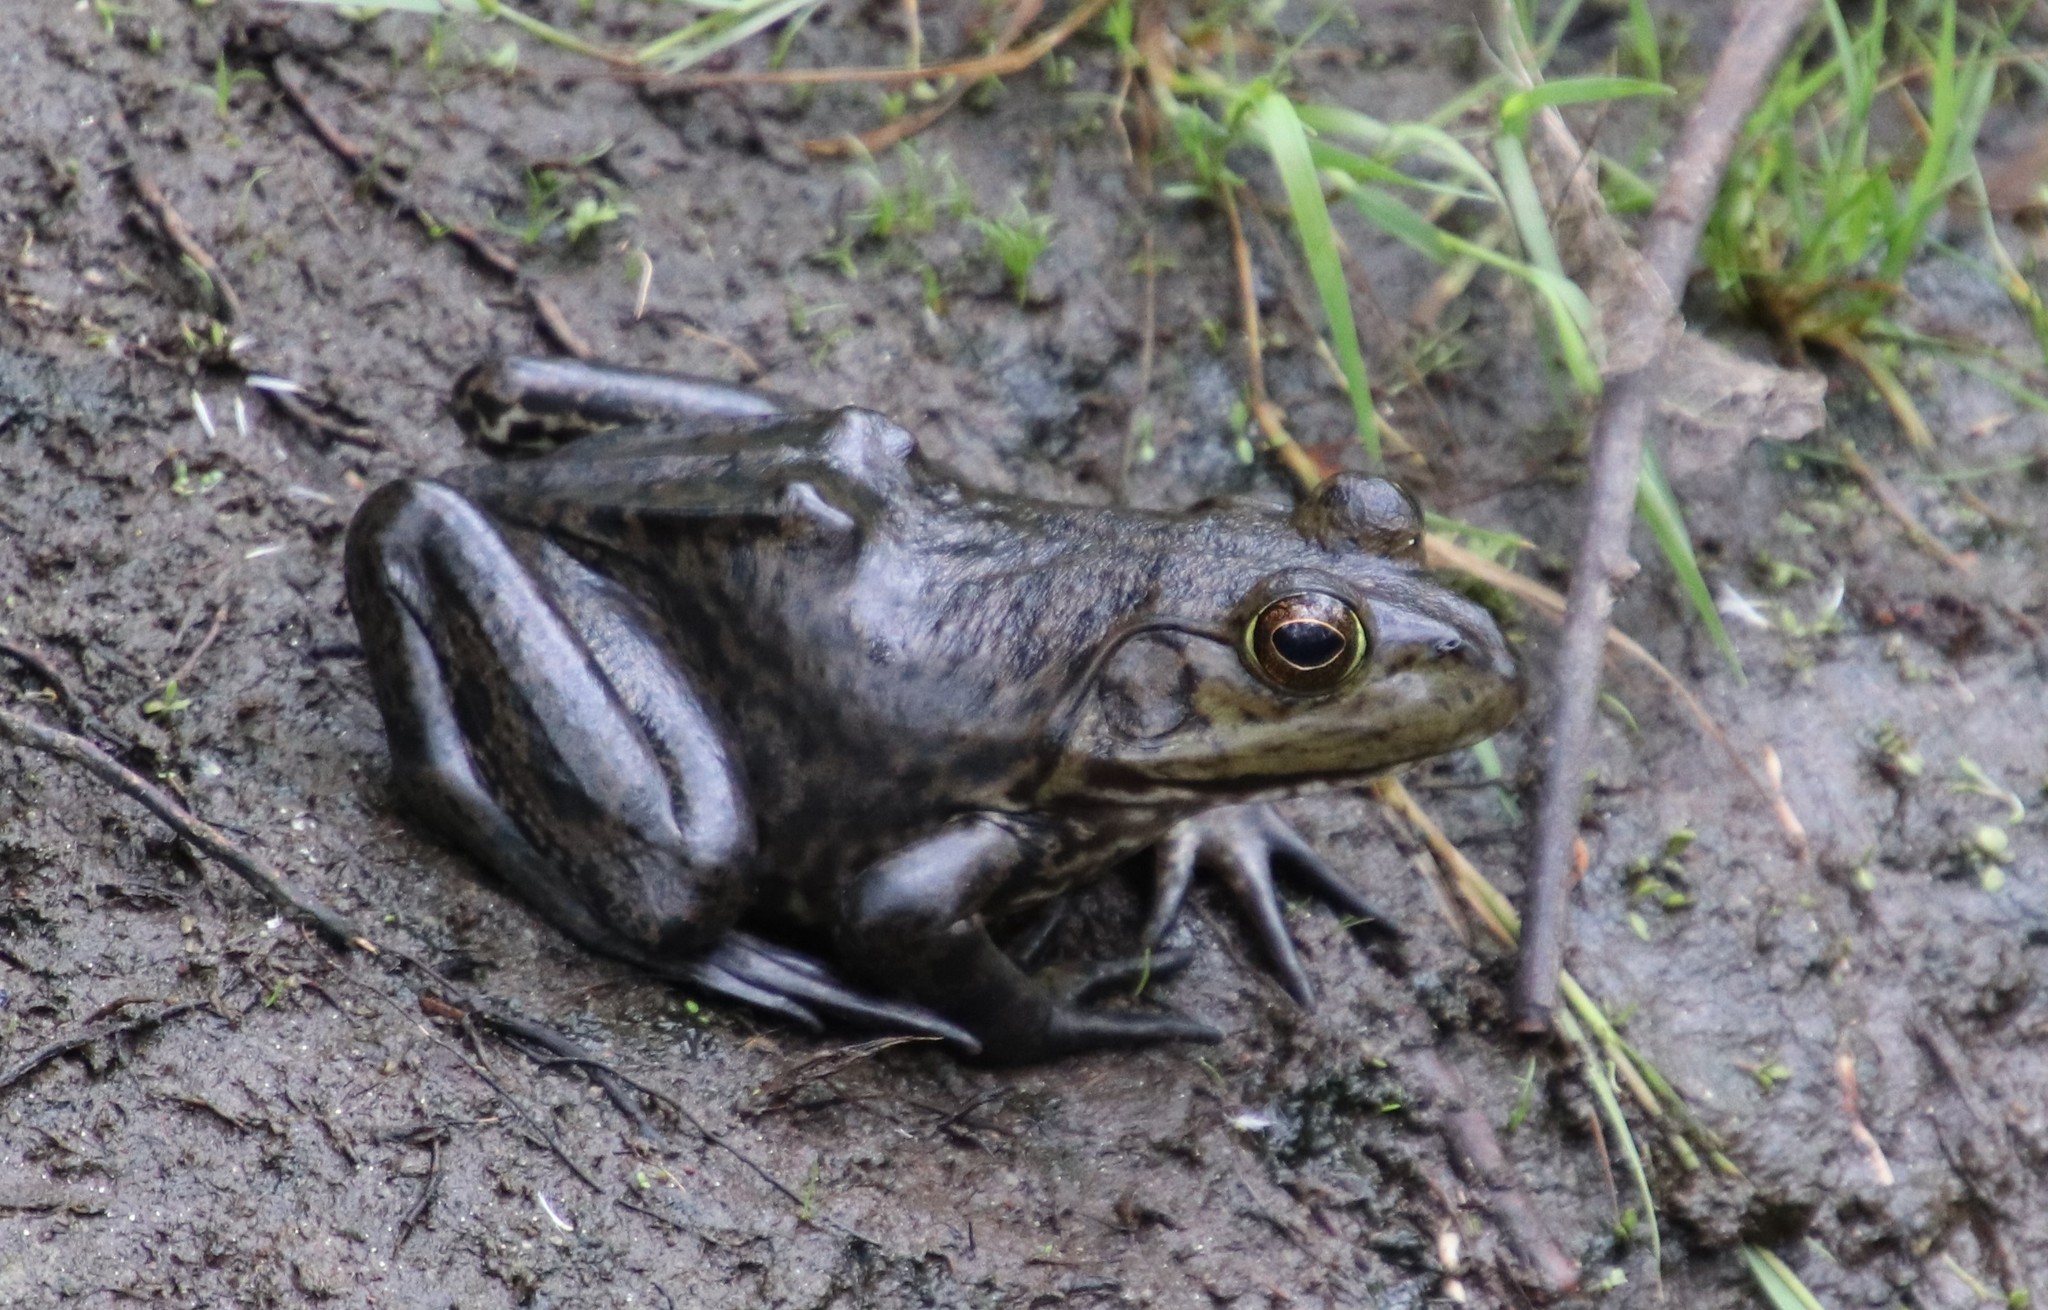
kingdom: Animalia
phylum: Chordata
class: Amphibia
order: Anura
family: Ranidae
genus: Lithobates
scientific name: Lithobates catesbeianus
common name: American bullfrog
